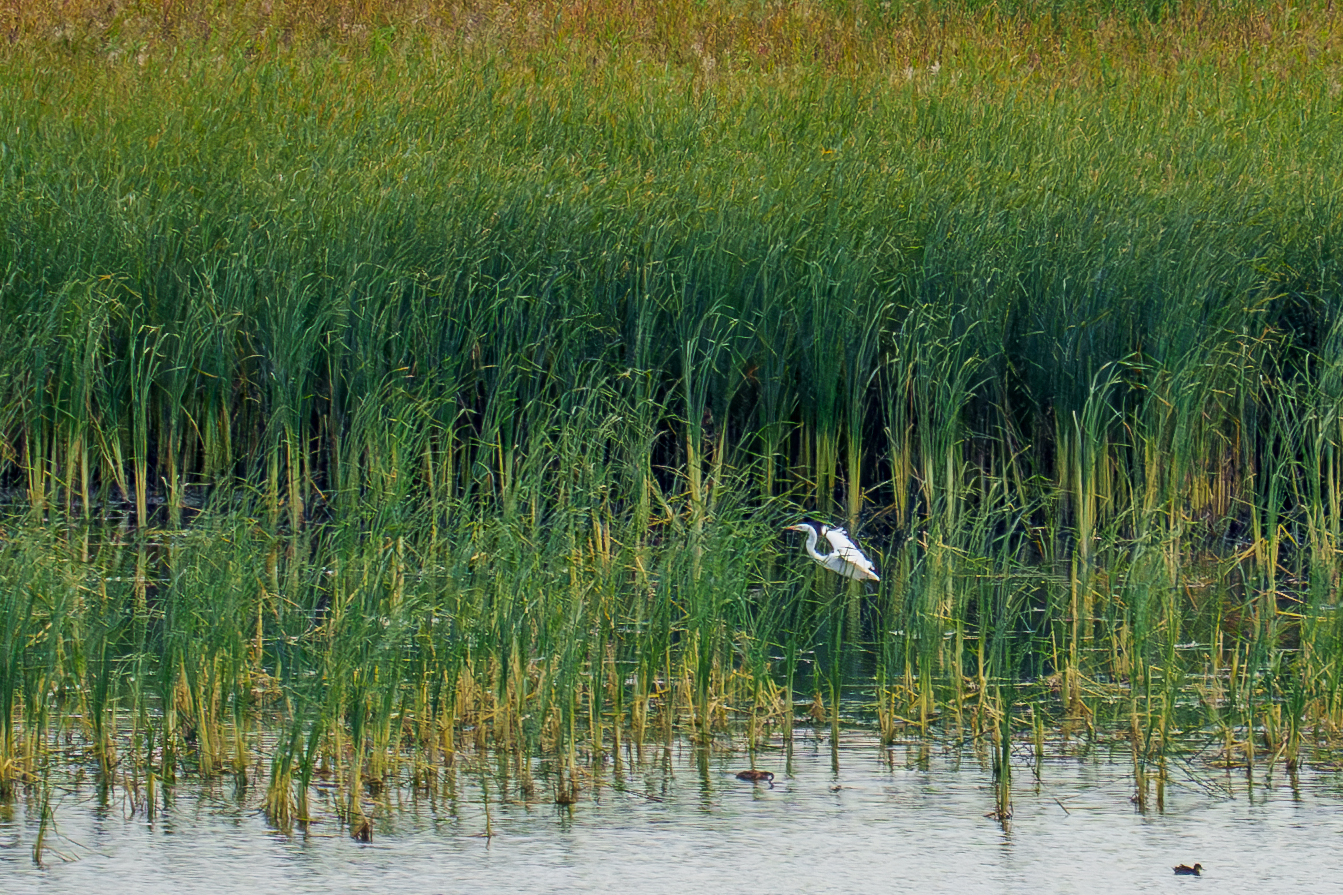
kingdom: Animalia
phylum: Chordata
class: Aves
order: Pelecaniformes
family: Ardeidae
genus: Ardea
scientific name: Ardea alba
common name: Great egret
